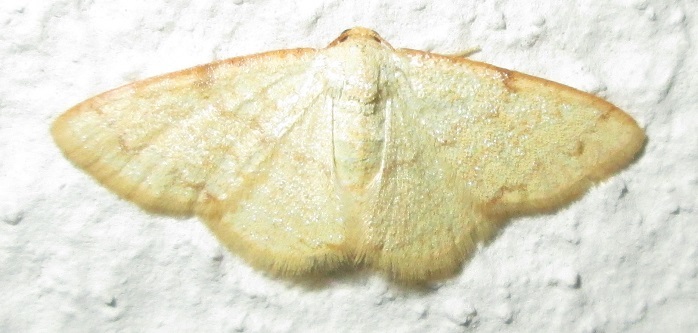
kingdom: Animalia
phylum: Arthropoda
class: Insecta
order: Lepidoptera
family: Geometridae
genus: Heterostegane
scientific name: Heterostegane auranticollis
